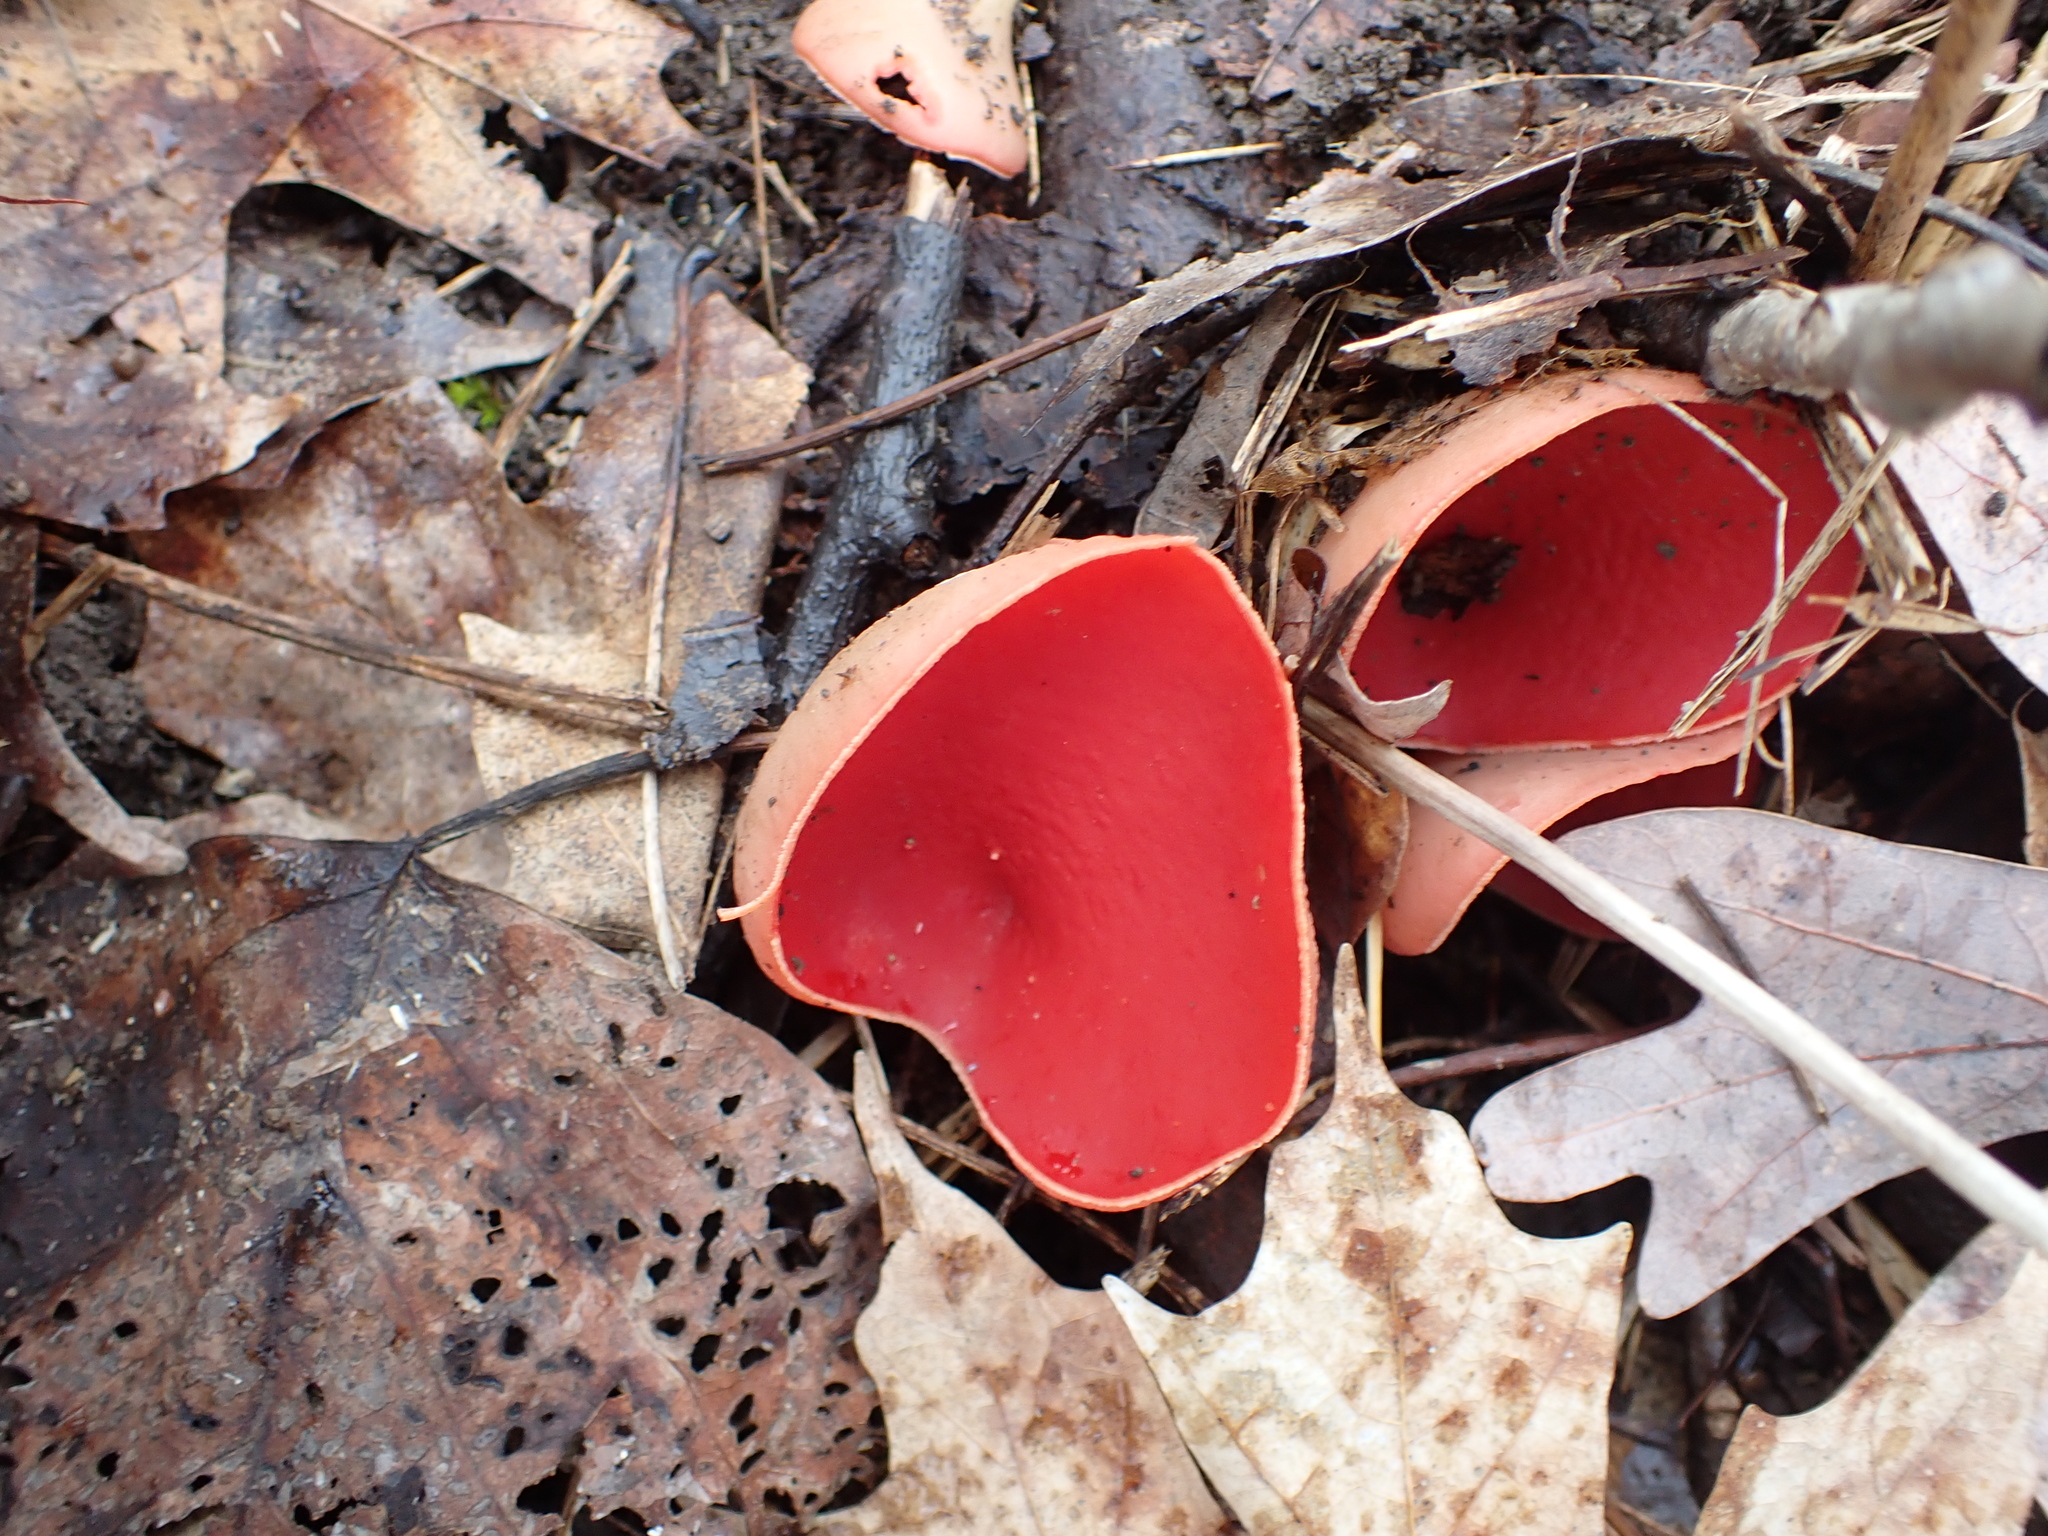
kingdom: Fungi
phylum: Ascomycota
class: Pezizomycetes
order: Pezizales
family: Sarcoscyphaceae
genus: Sarcoscypha
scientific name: Sarcoscypha austriaca
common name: Scarlet elfcup
